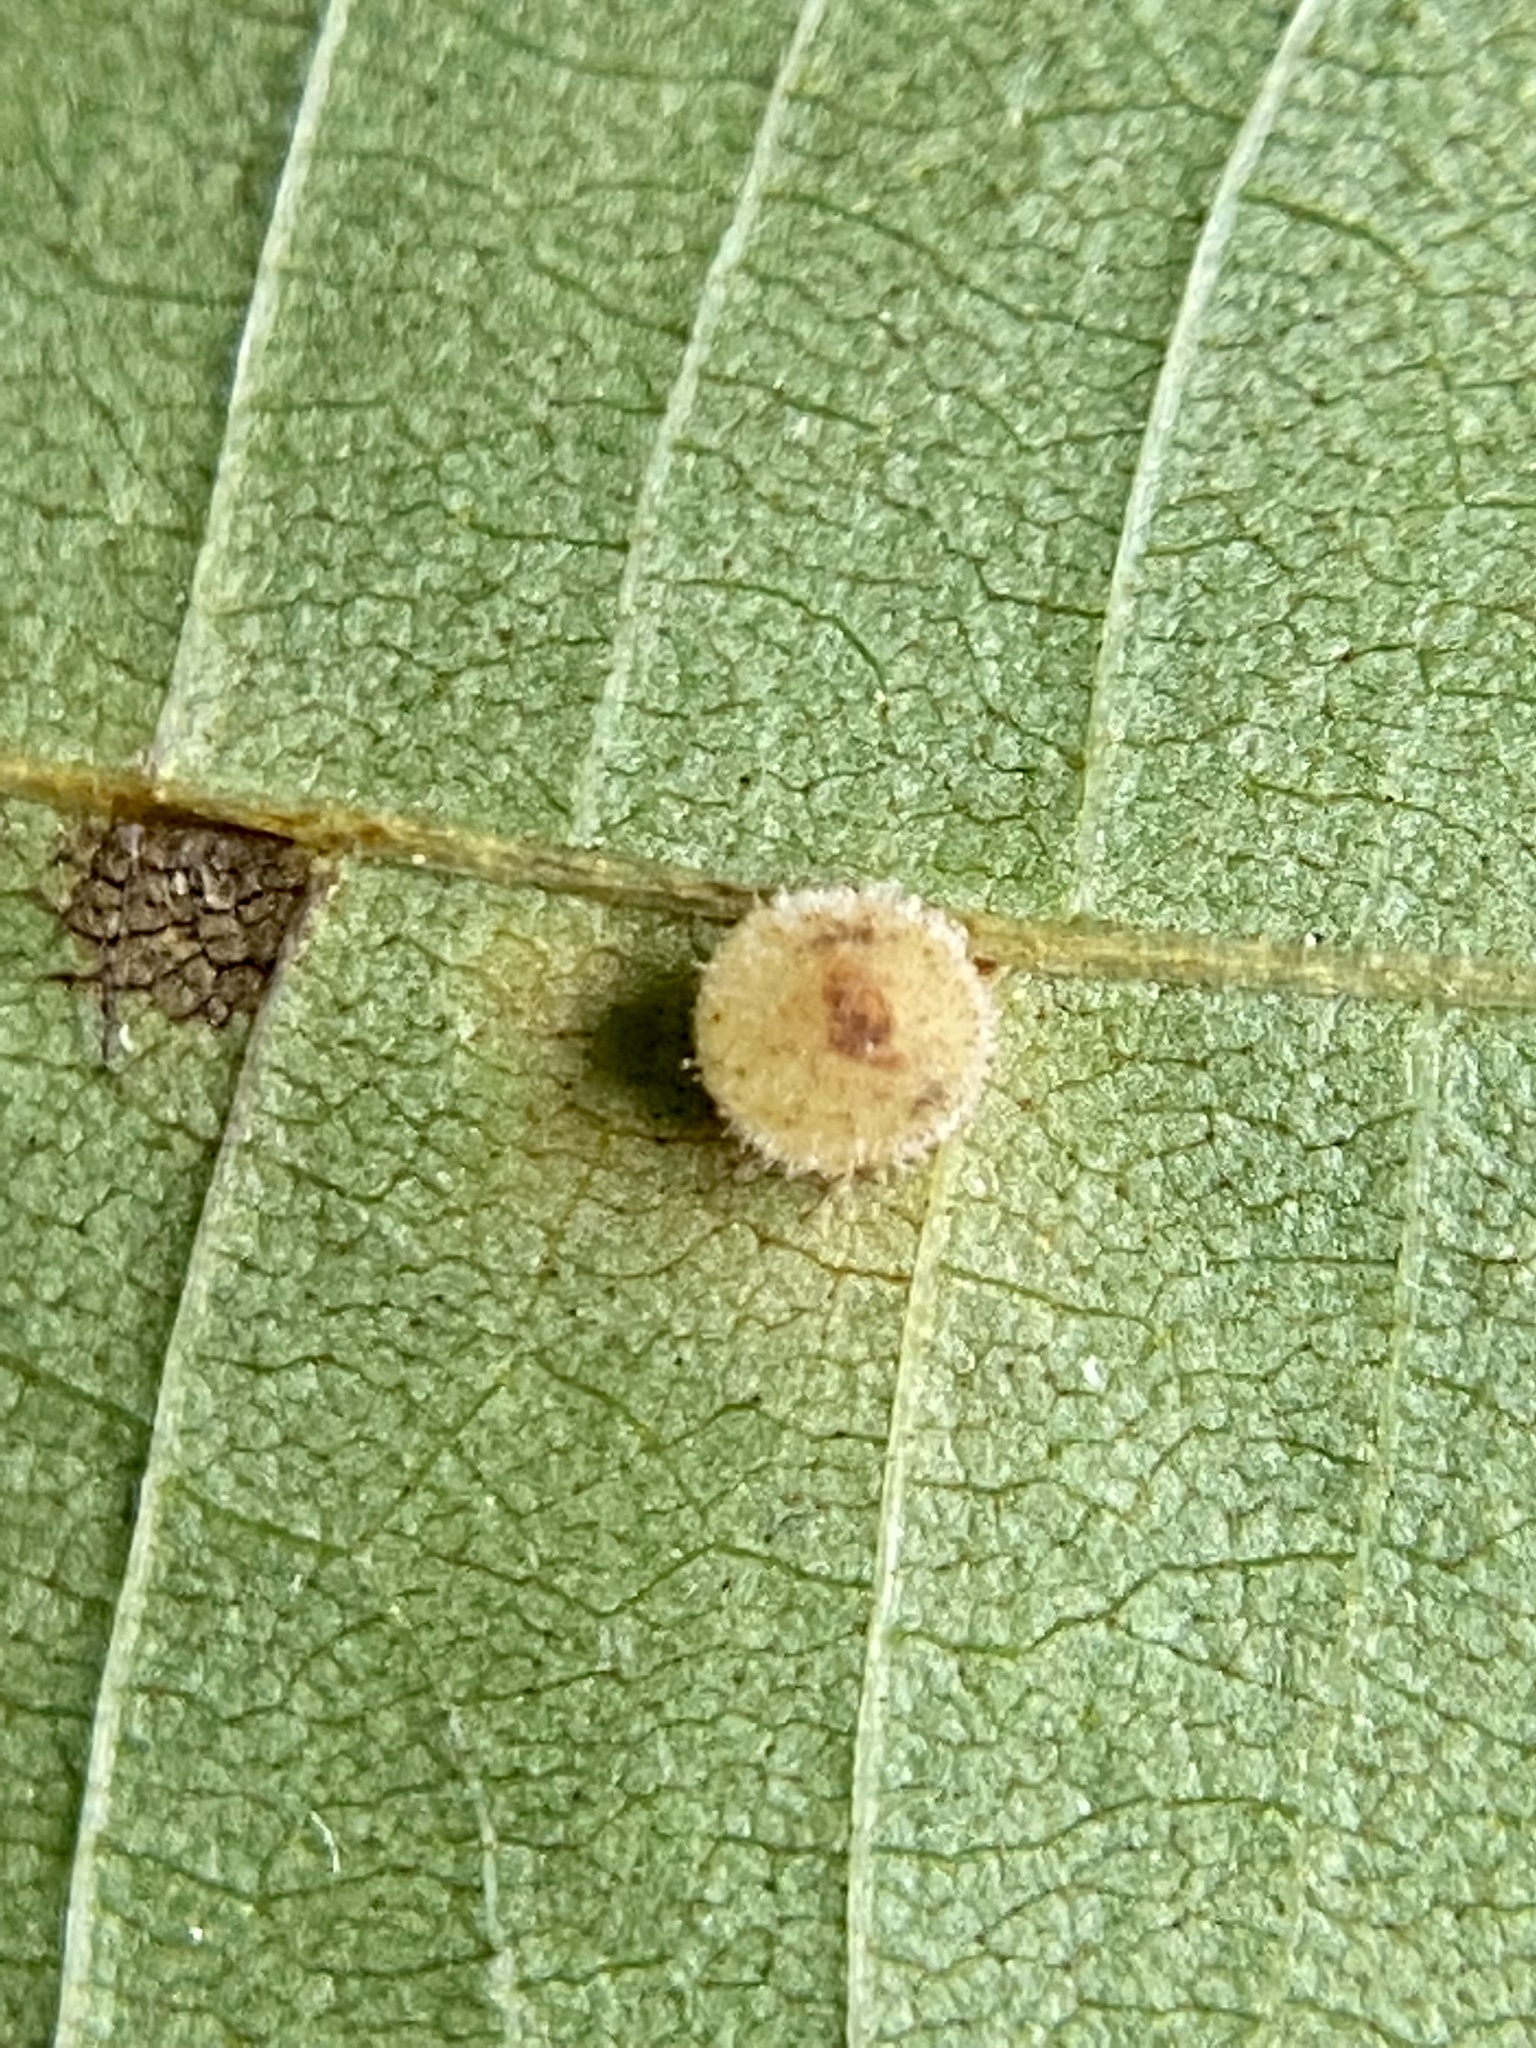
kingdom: Animalia
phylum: Arthropoda
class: Insecta
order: Diptera
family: Cecidomyiidae
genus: Caryomyia
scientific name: Caryomyia hirtidolium
